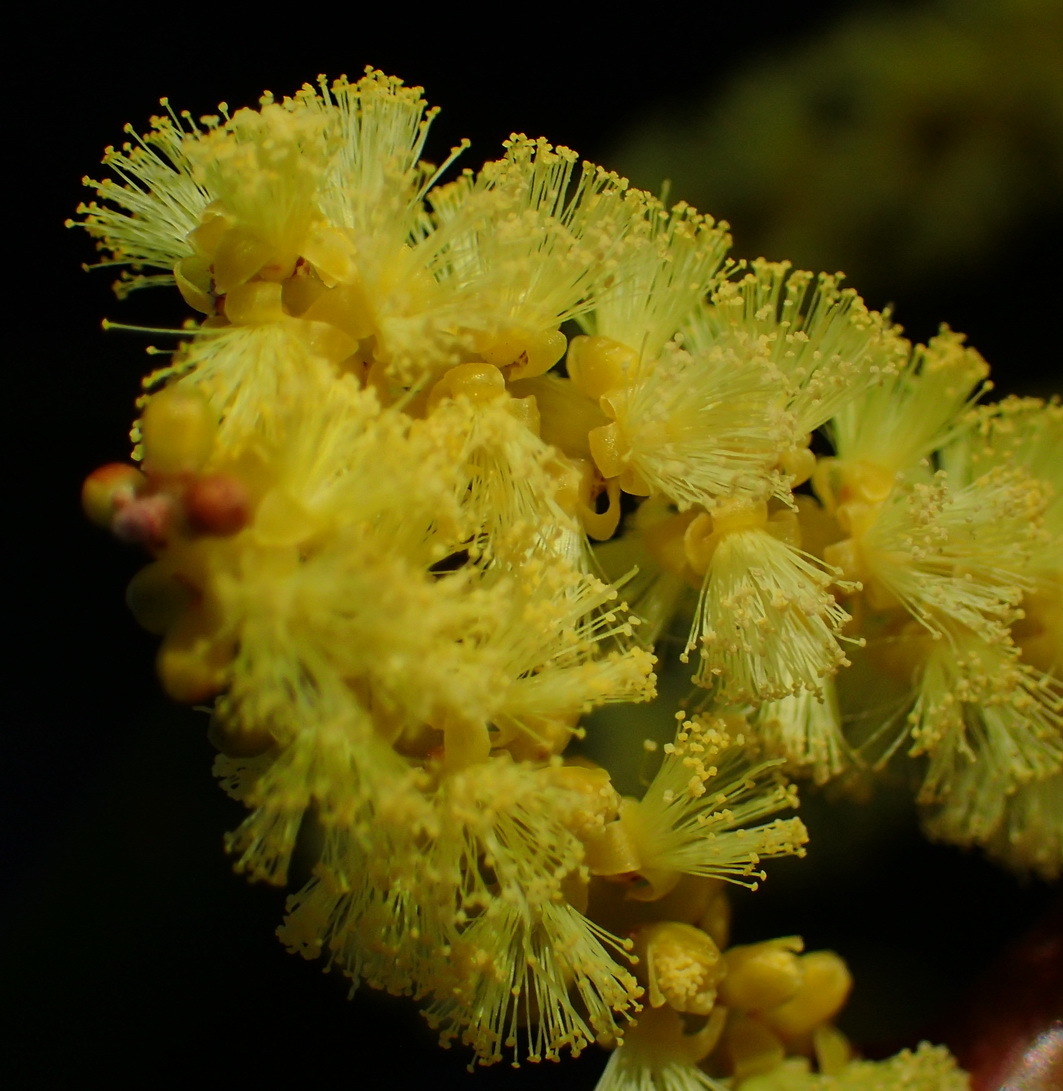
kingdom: Plantae
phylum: Tracheophyta
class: Magnoliopsida
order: Fabales
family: Fabaceae
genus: Acacia
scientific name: Acacia longifolia
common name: Sydney golden wattle
